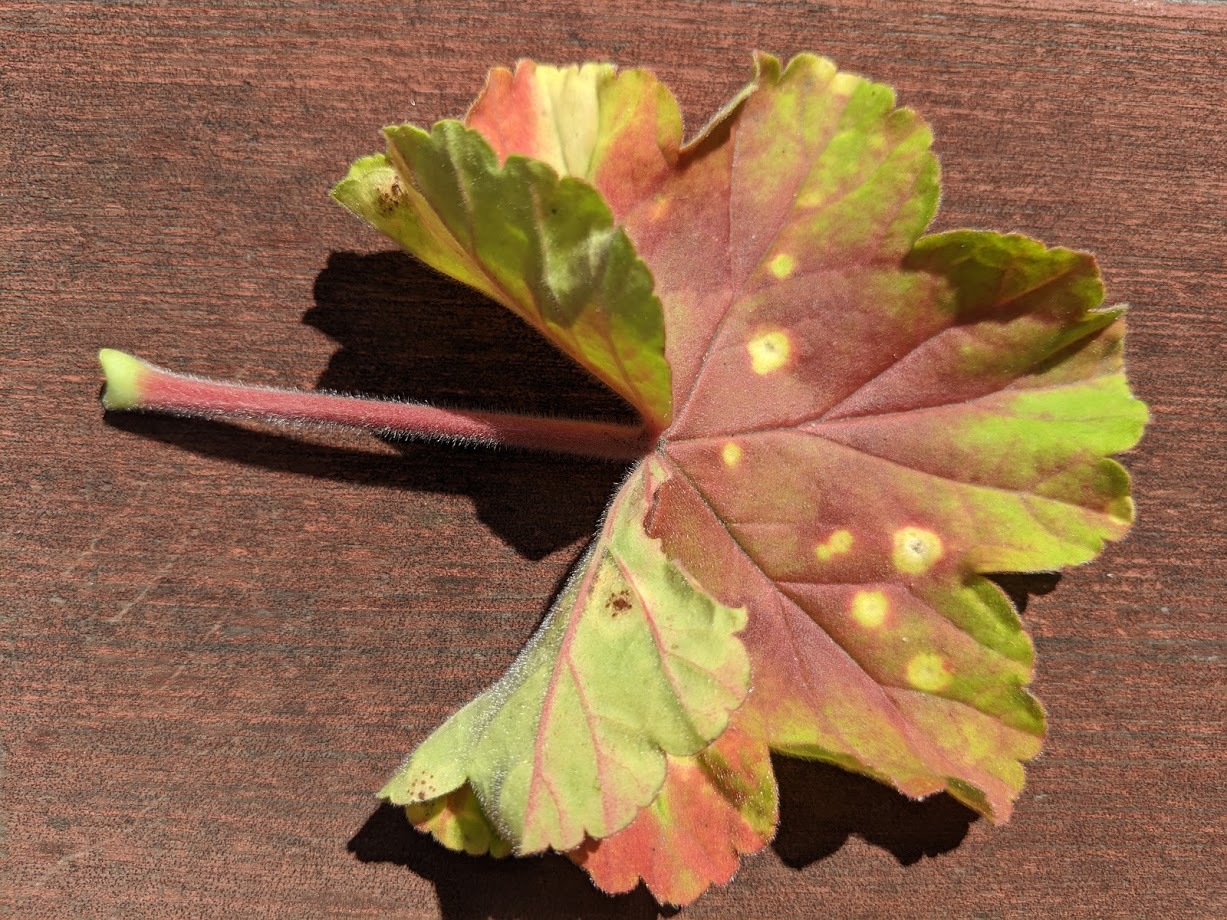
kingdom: Fungi
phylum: Basidiomycota
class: Pucciniomycetes
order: Pucciniales
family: Pucciniaceae
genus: Puccinia
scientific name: Puccinia pelargonii-zonalis
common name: Rust of pelargonium
